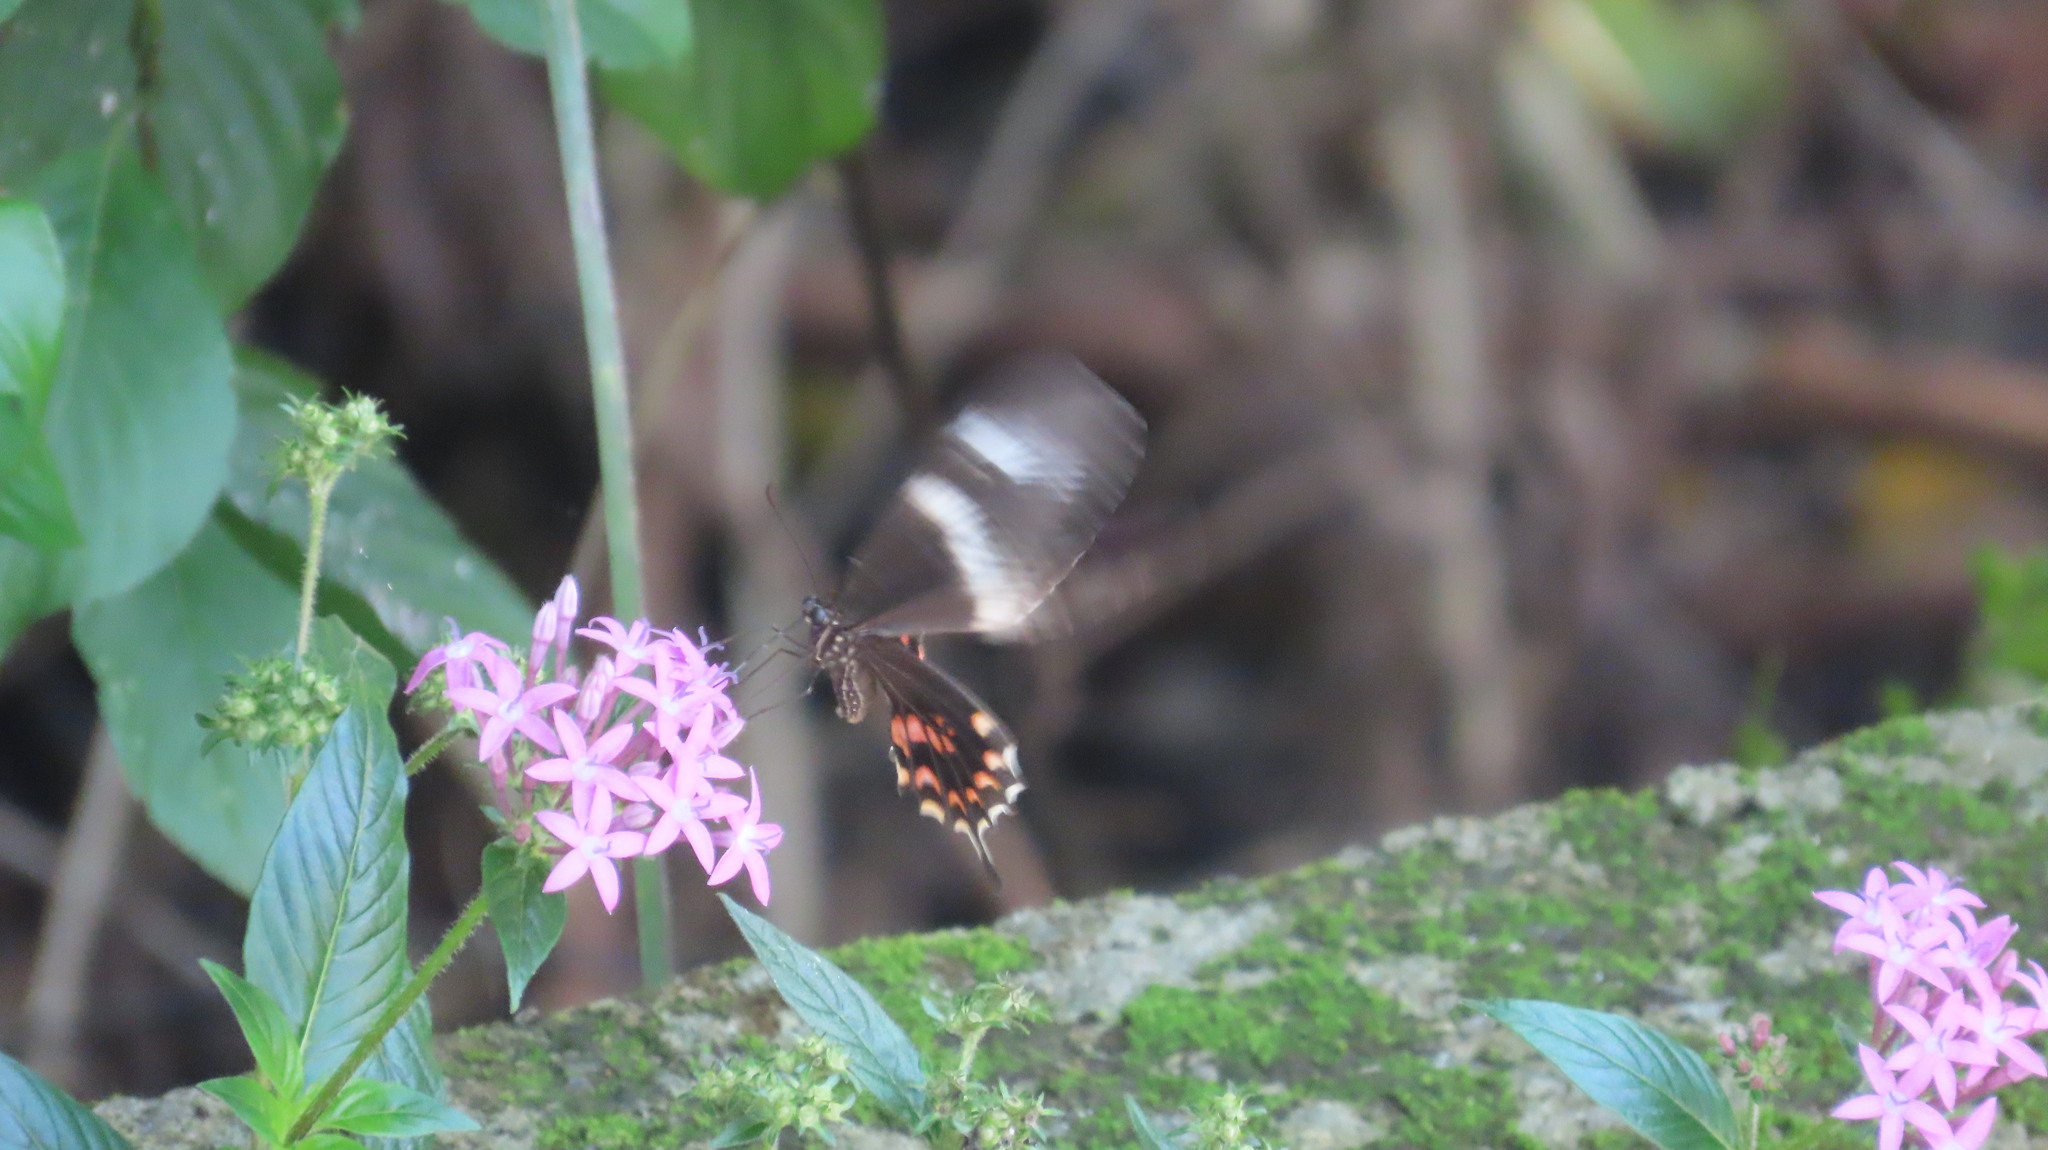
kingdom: Animalia
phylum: Arthropoda
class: Insecta
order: Lepidoptera
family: Papilionidae
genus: Papilio
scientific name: Papilio polytes
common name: Common mormon
